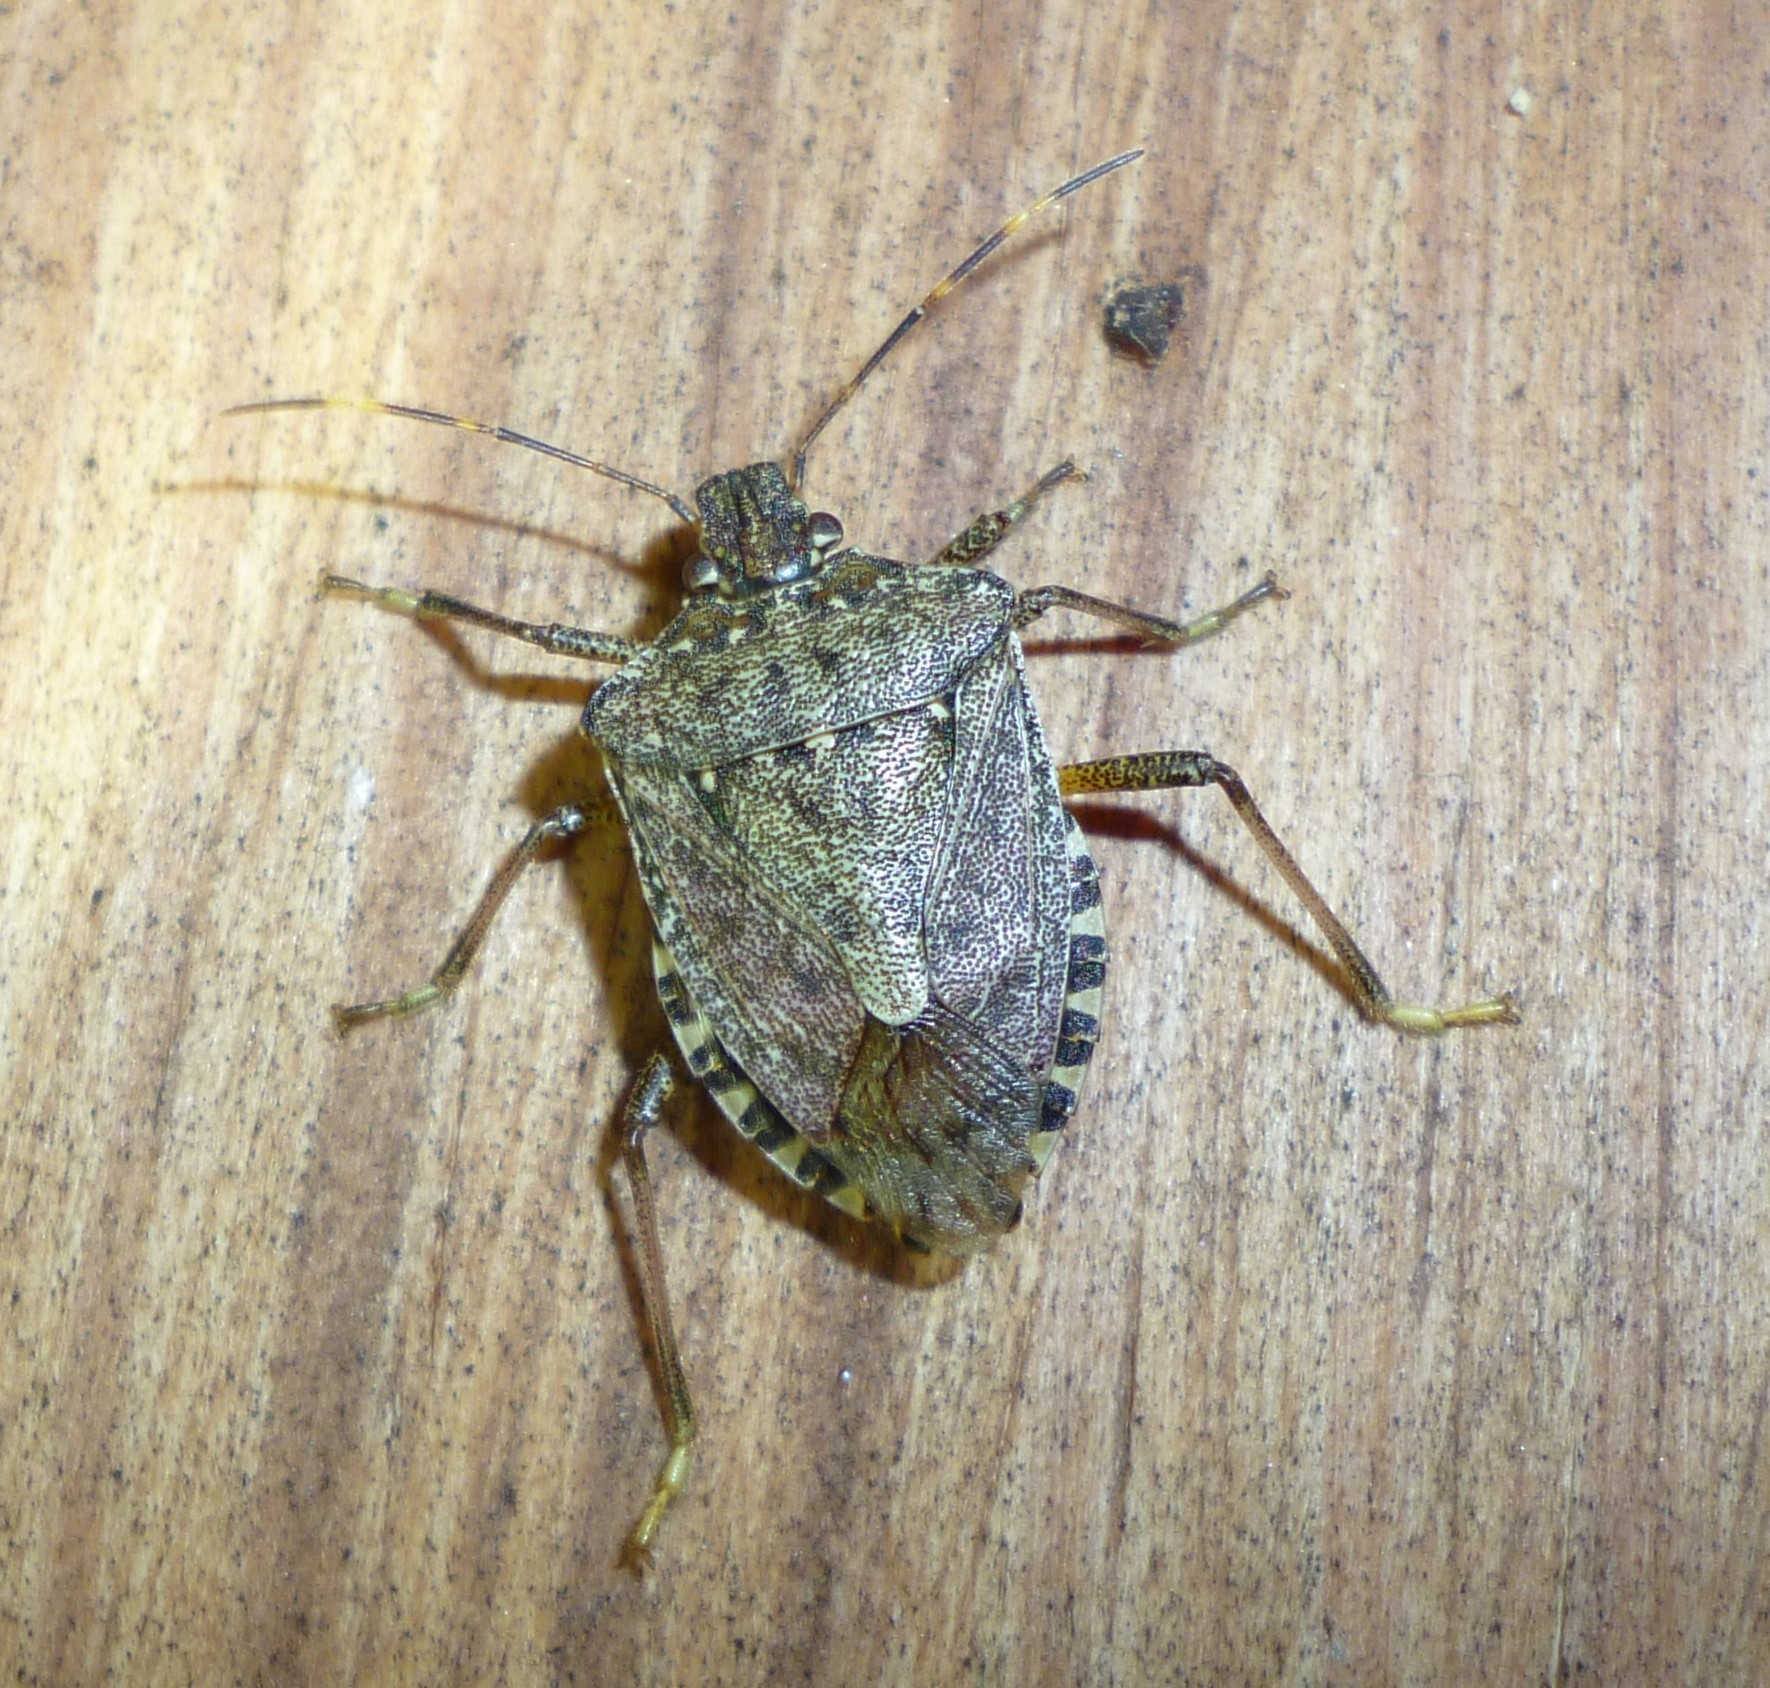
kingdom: Animalia
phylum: Arthropoda
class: Insecta
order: Hemiptera
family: Pentatomidae
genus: Halyomorpha
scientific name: Halyomorpha halys
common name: Brown marmorated stink bug
